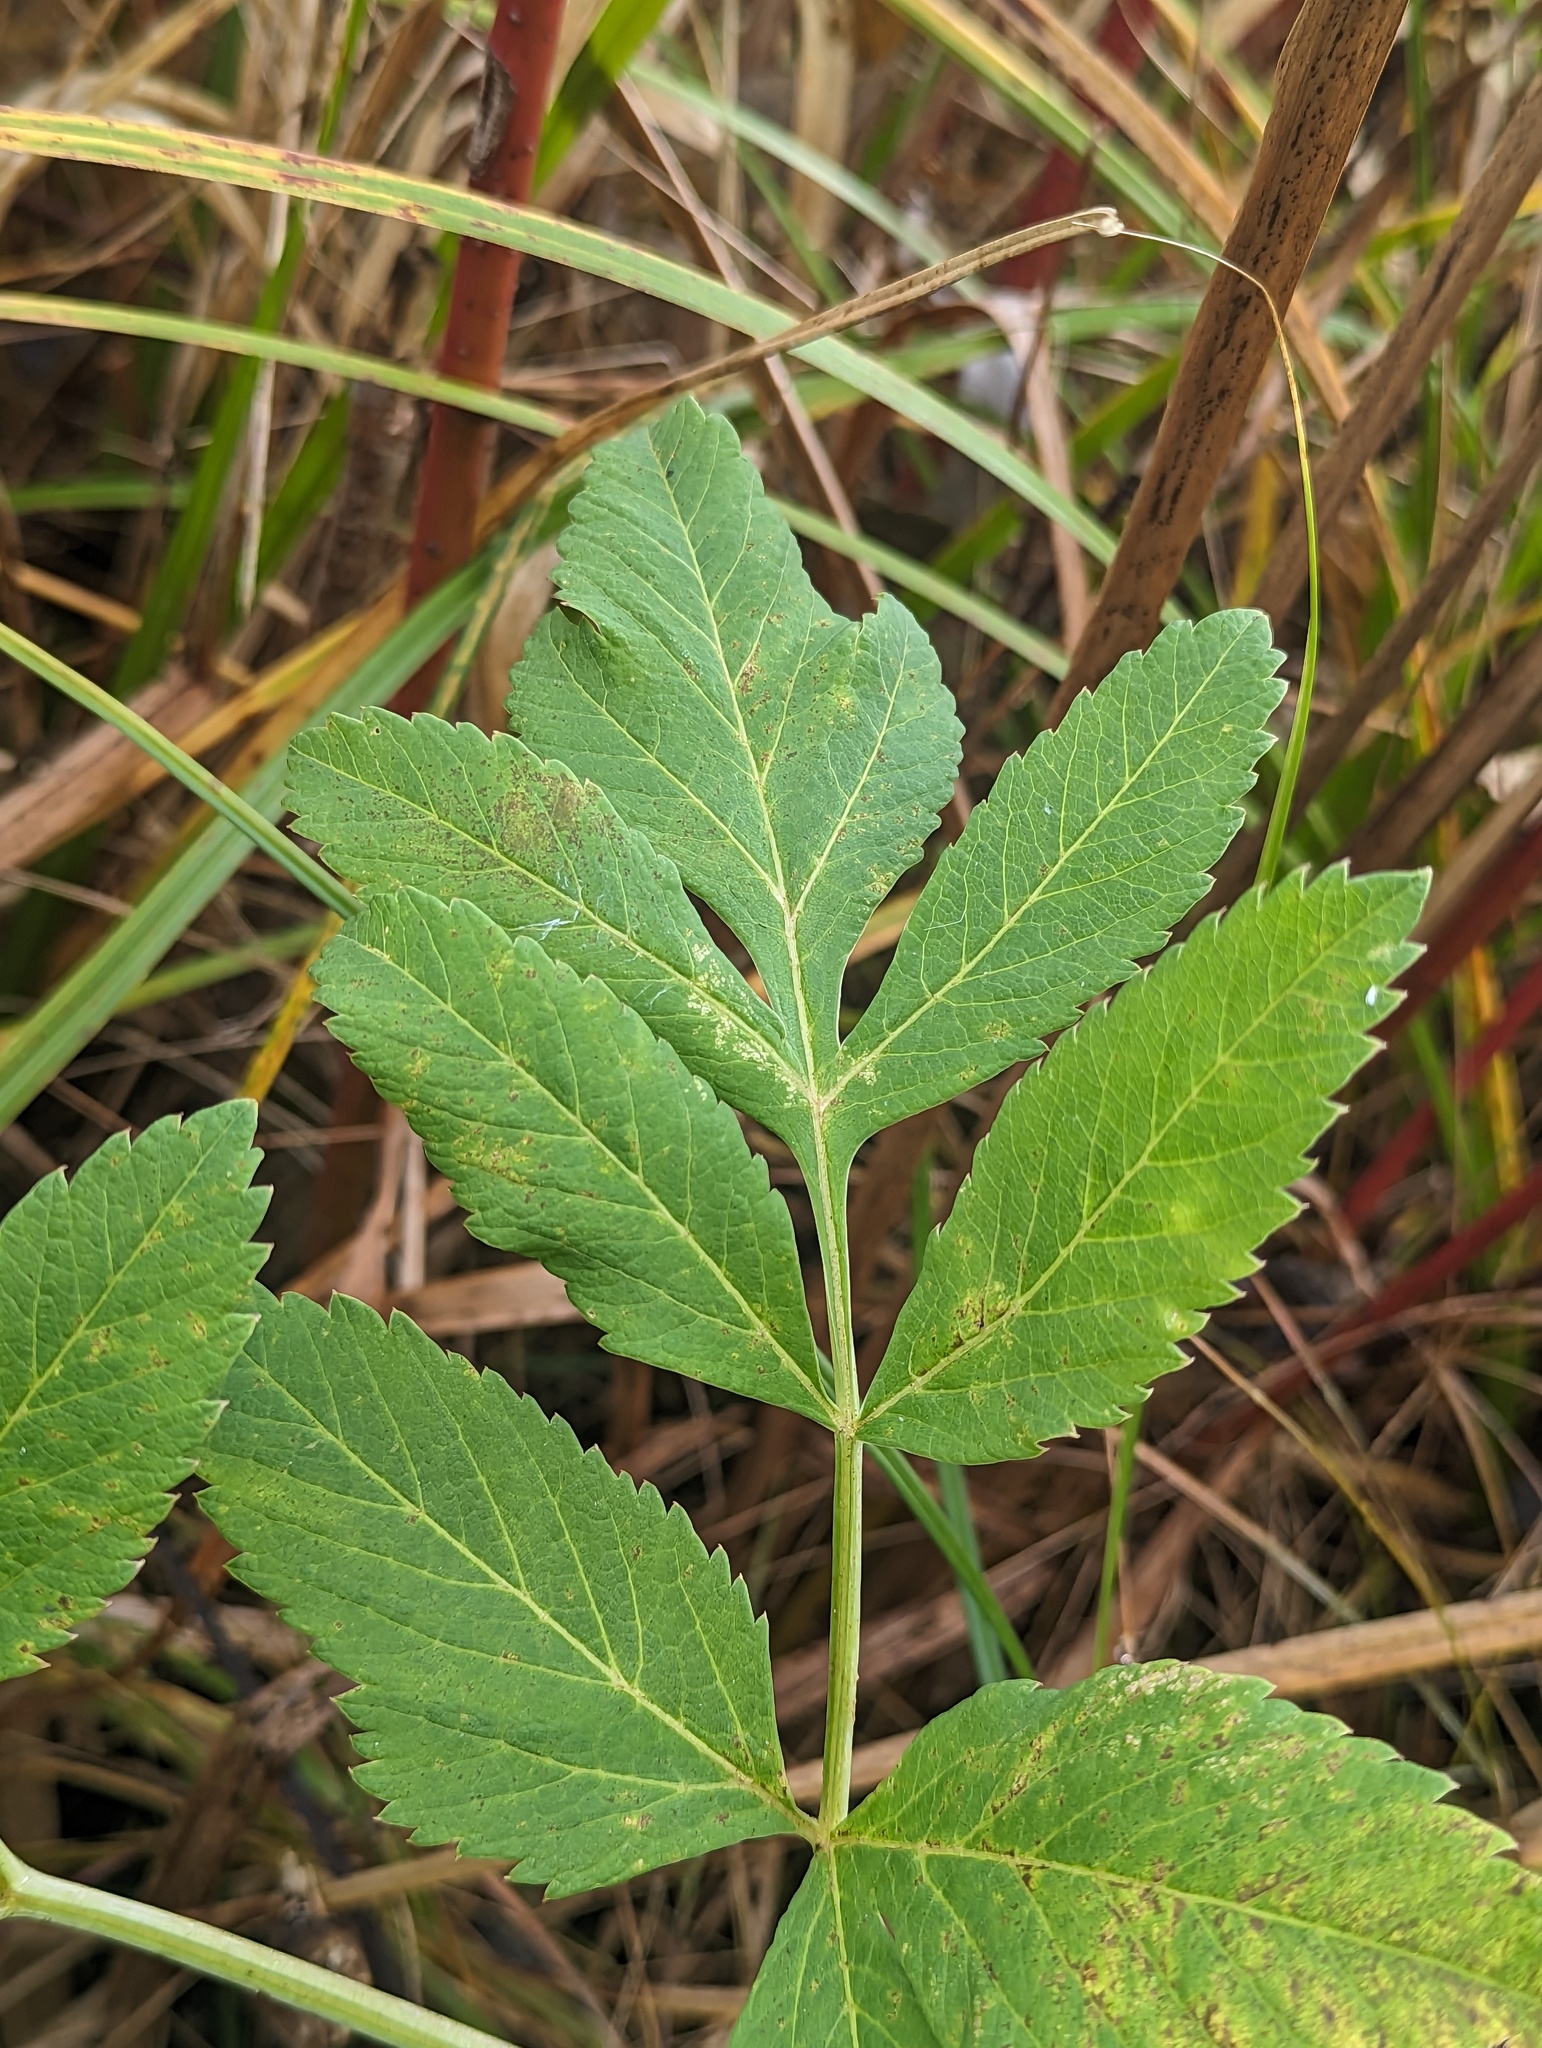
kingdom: Plantae
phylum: Tracheophyta
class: Magnoliopsida
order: Apiales
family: Apiaceae
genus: Angelica
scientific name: Angelica atropurpurea
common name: Great angelica
